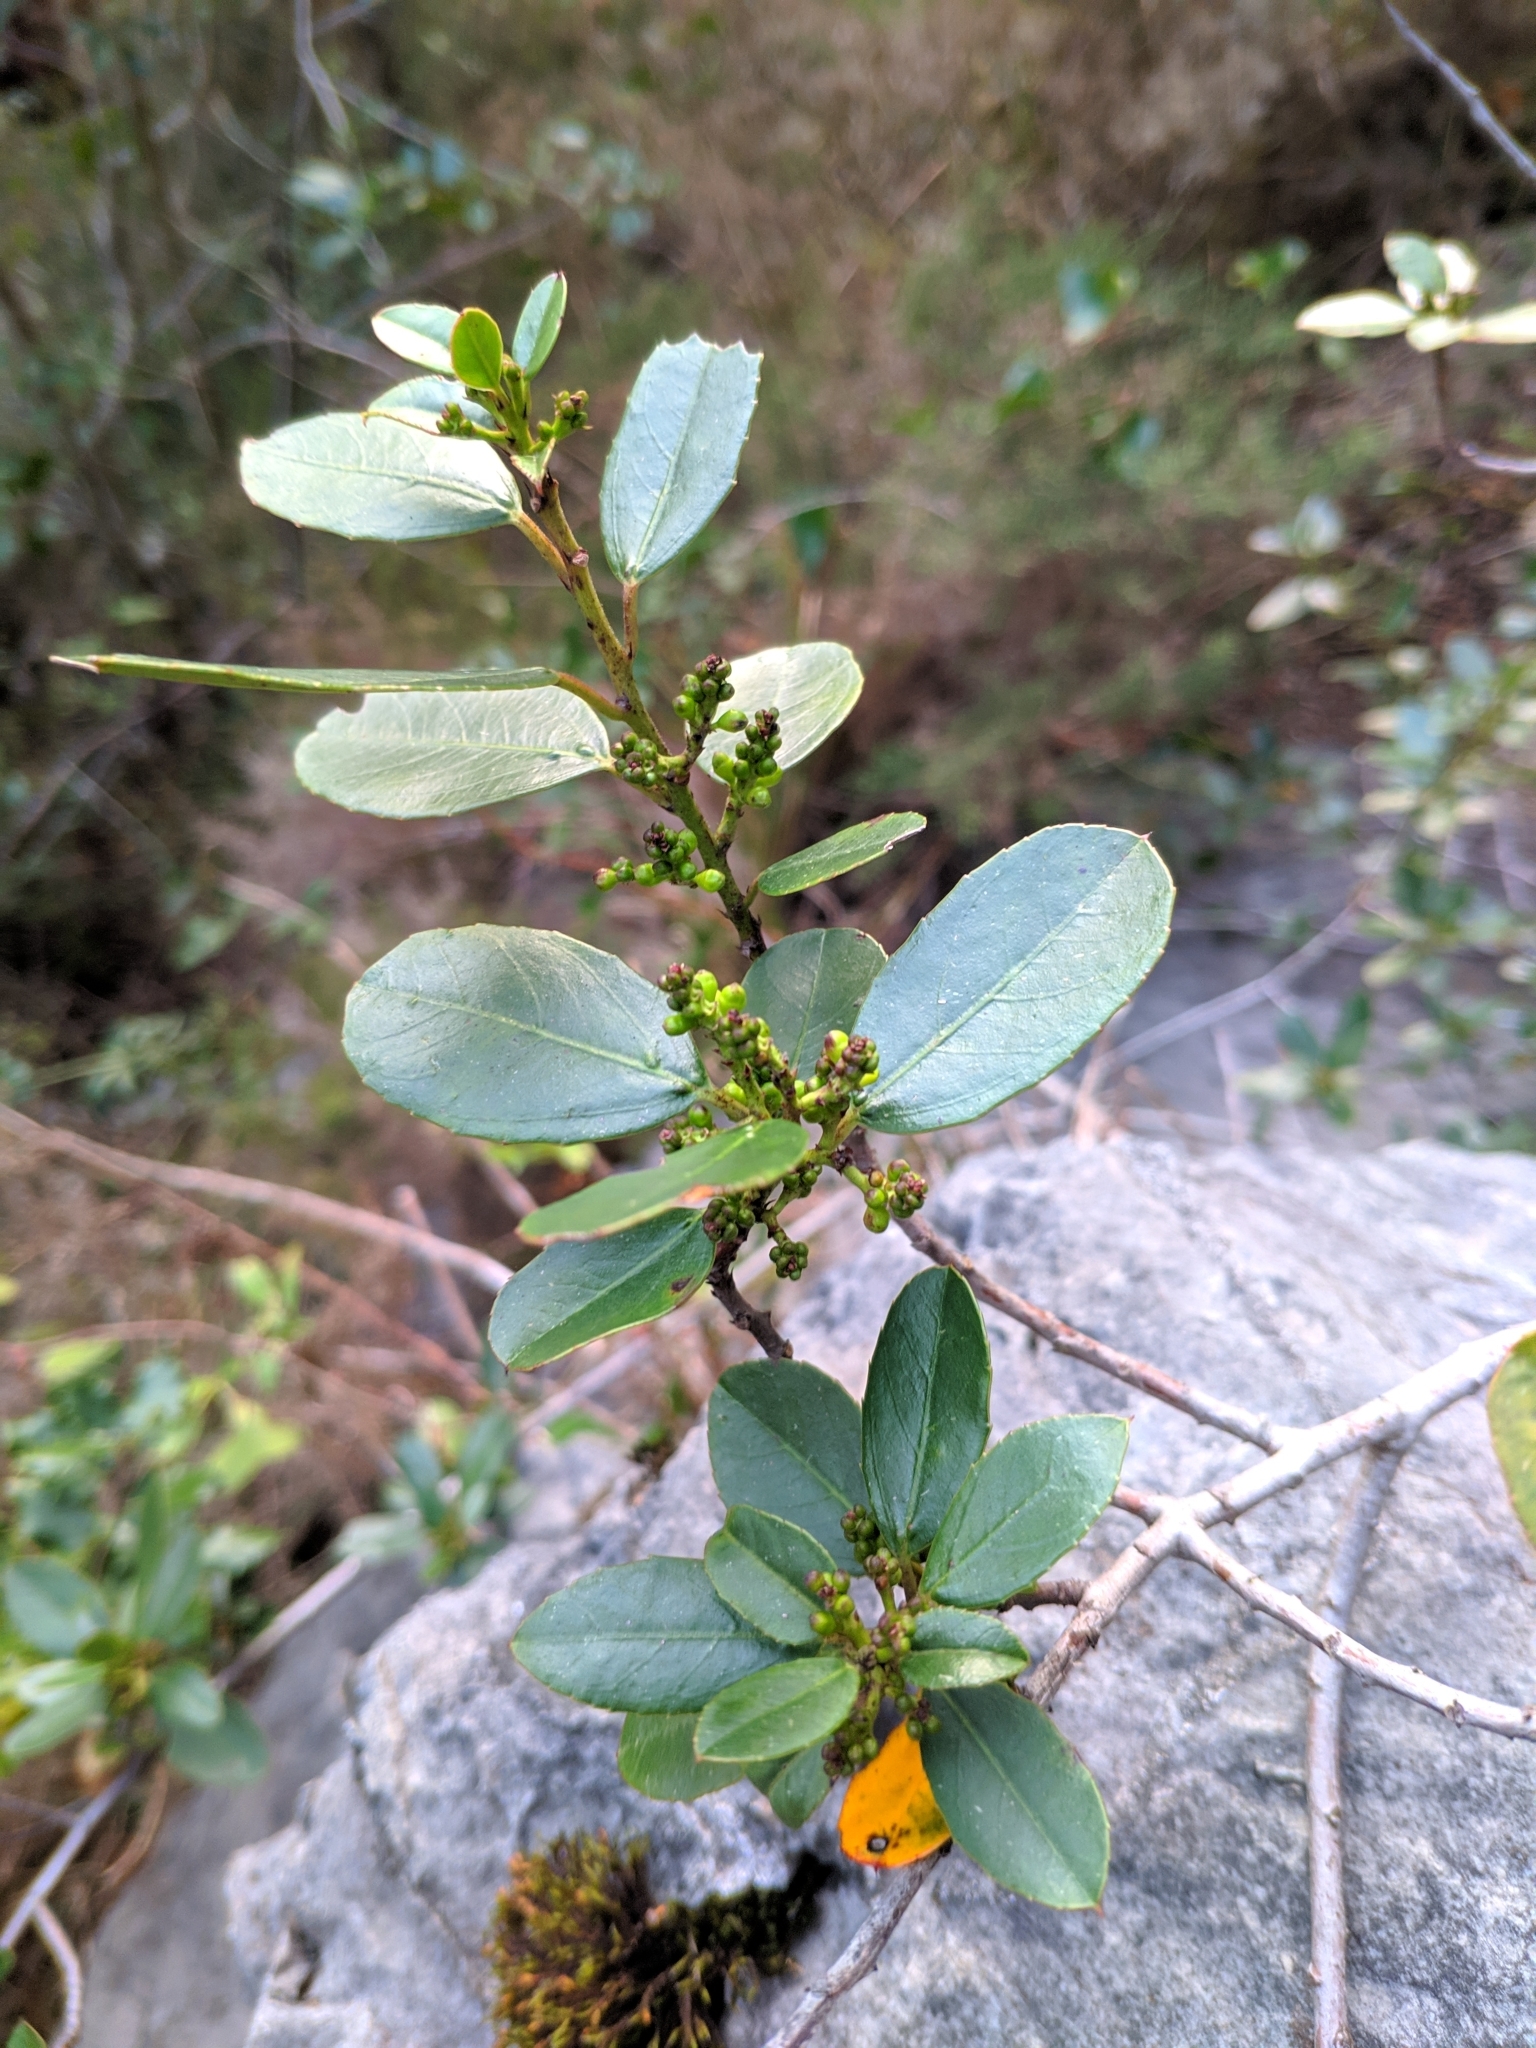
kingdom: Plantae
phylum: Tracheophyta
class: Magnoliopsida
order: Rosales
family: Rhamnaceae
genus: Rhamnus
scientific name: Rhamnus alaternus
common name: Mediterranean buckthorn
